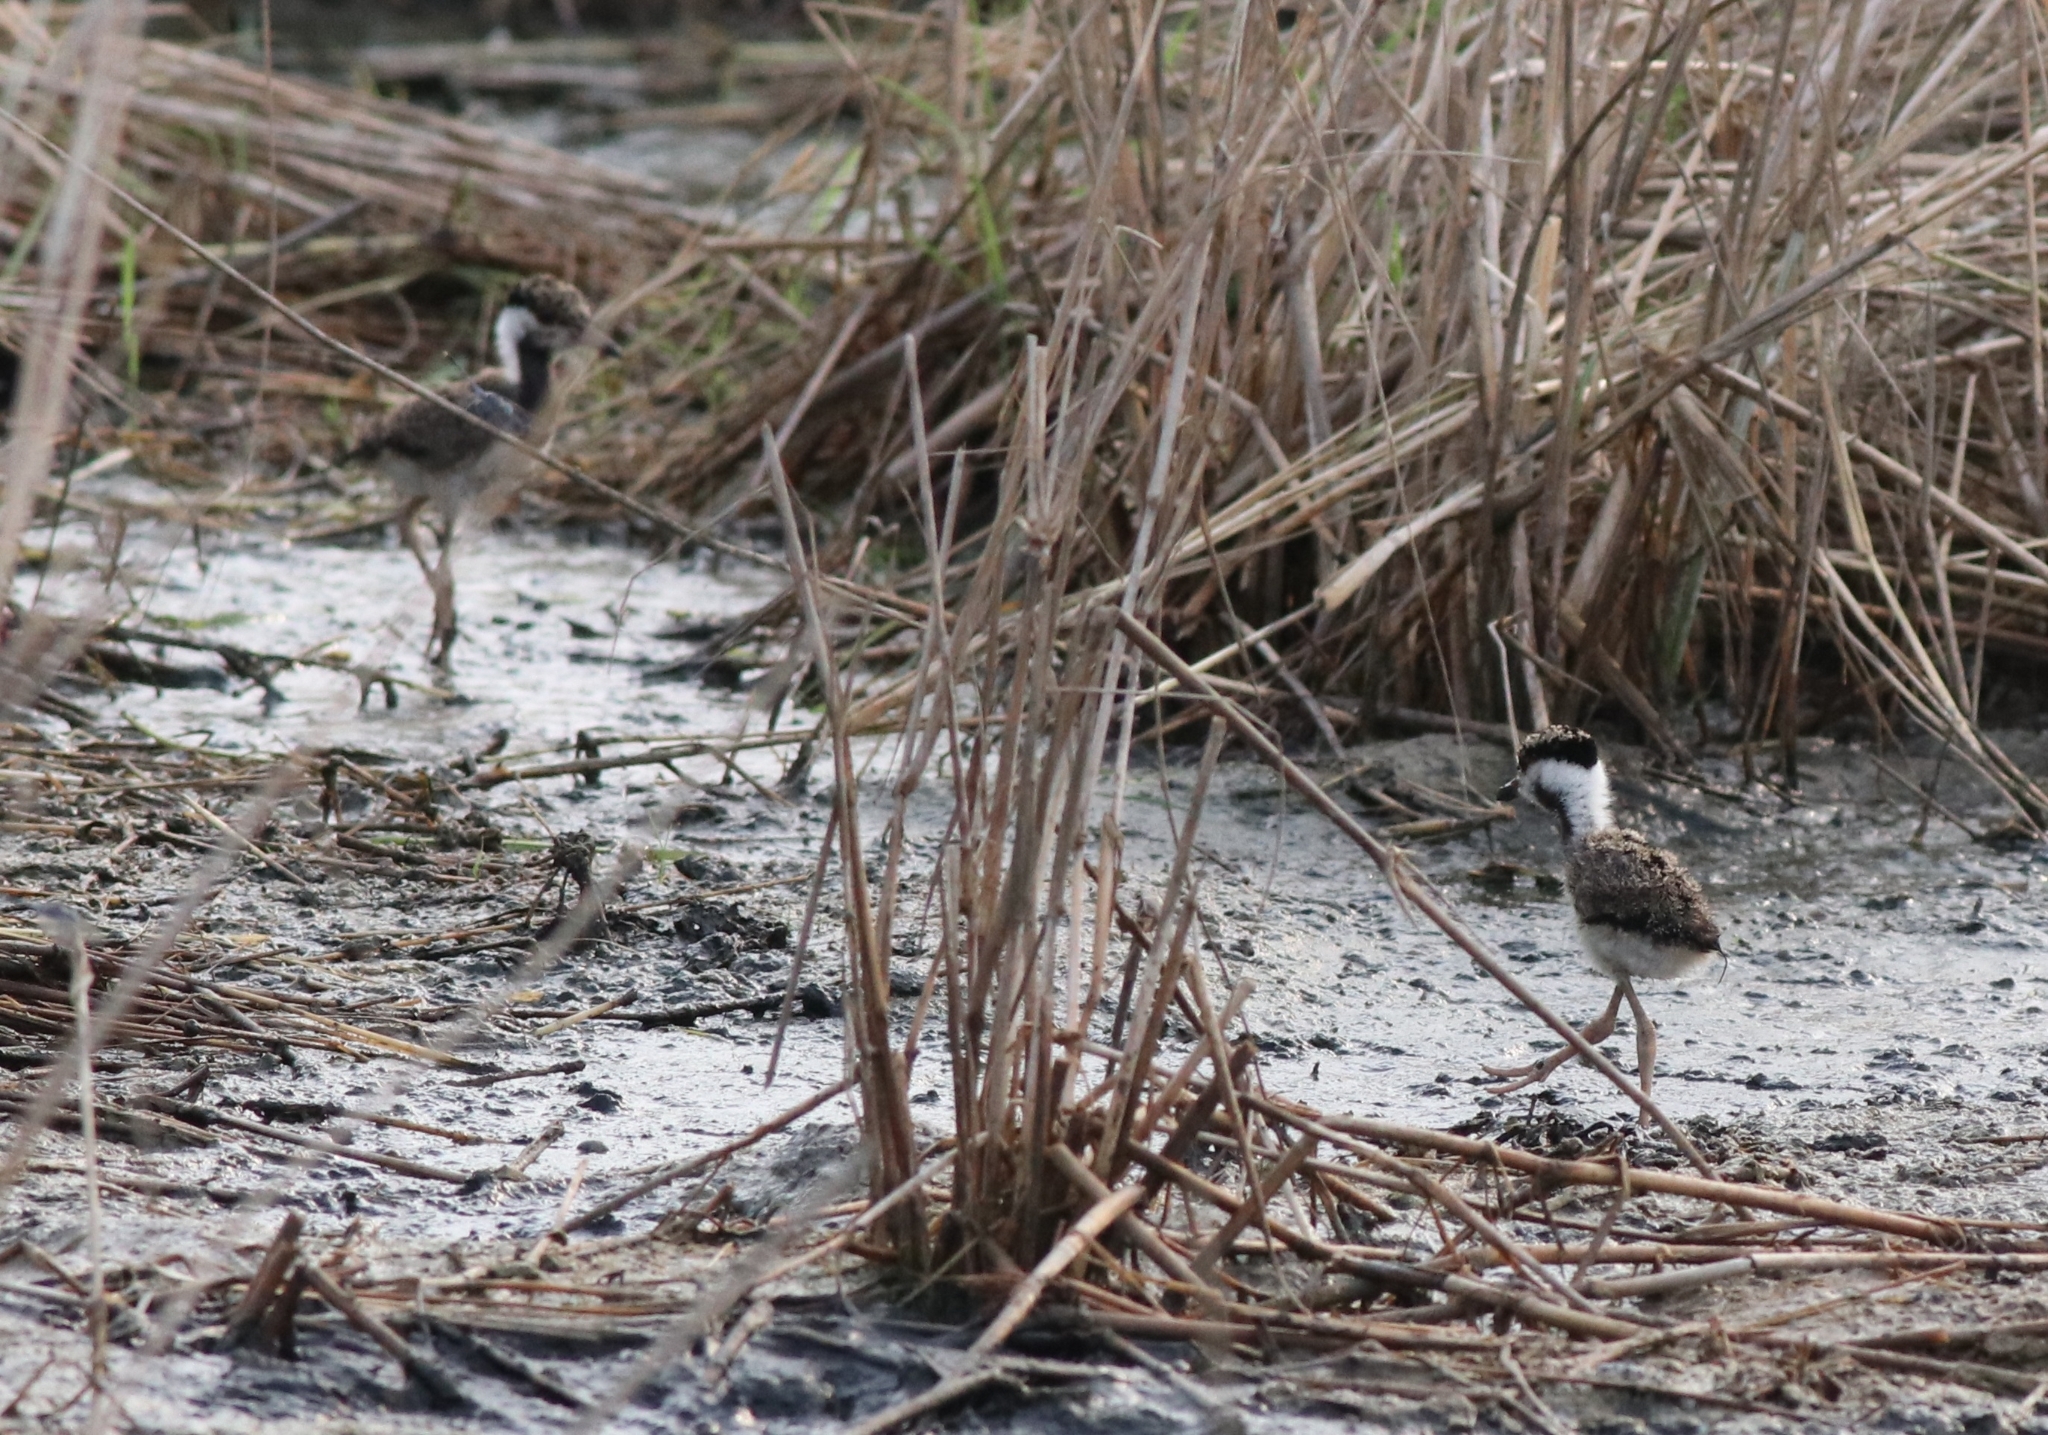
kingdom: Animalia
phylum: Chordata
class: Aves
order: Charadriiformes
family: Charadriidae
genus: Vanellus
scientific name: Vanellus indicus
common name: Red-wattled lapwing
